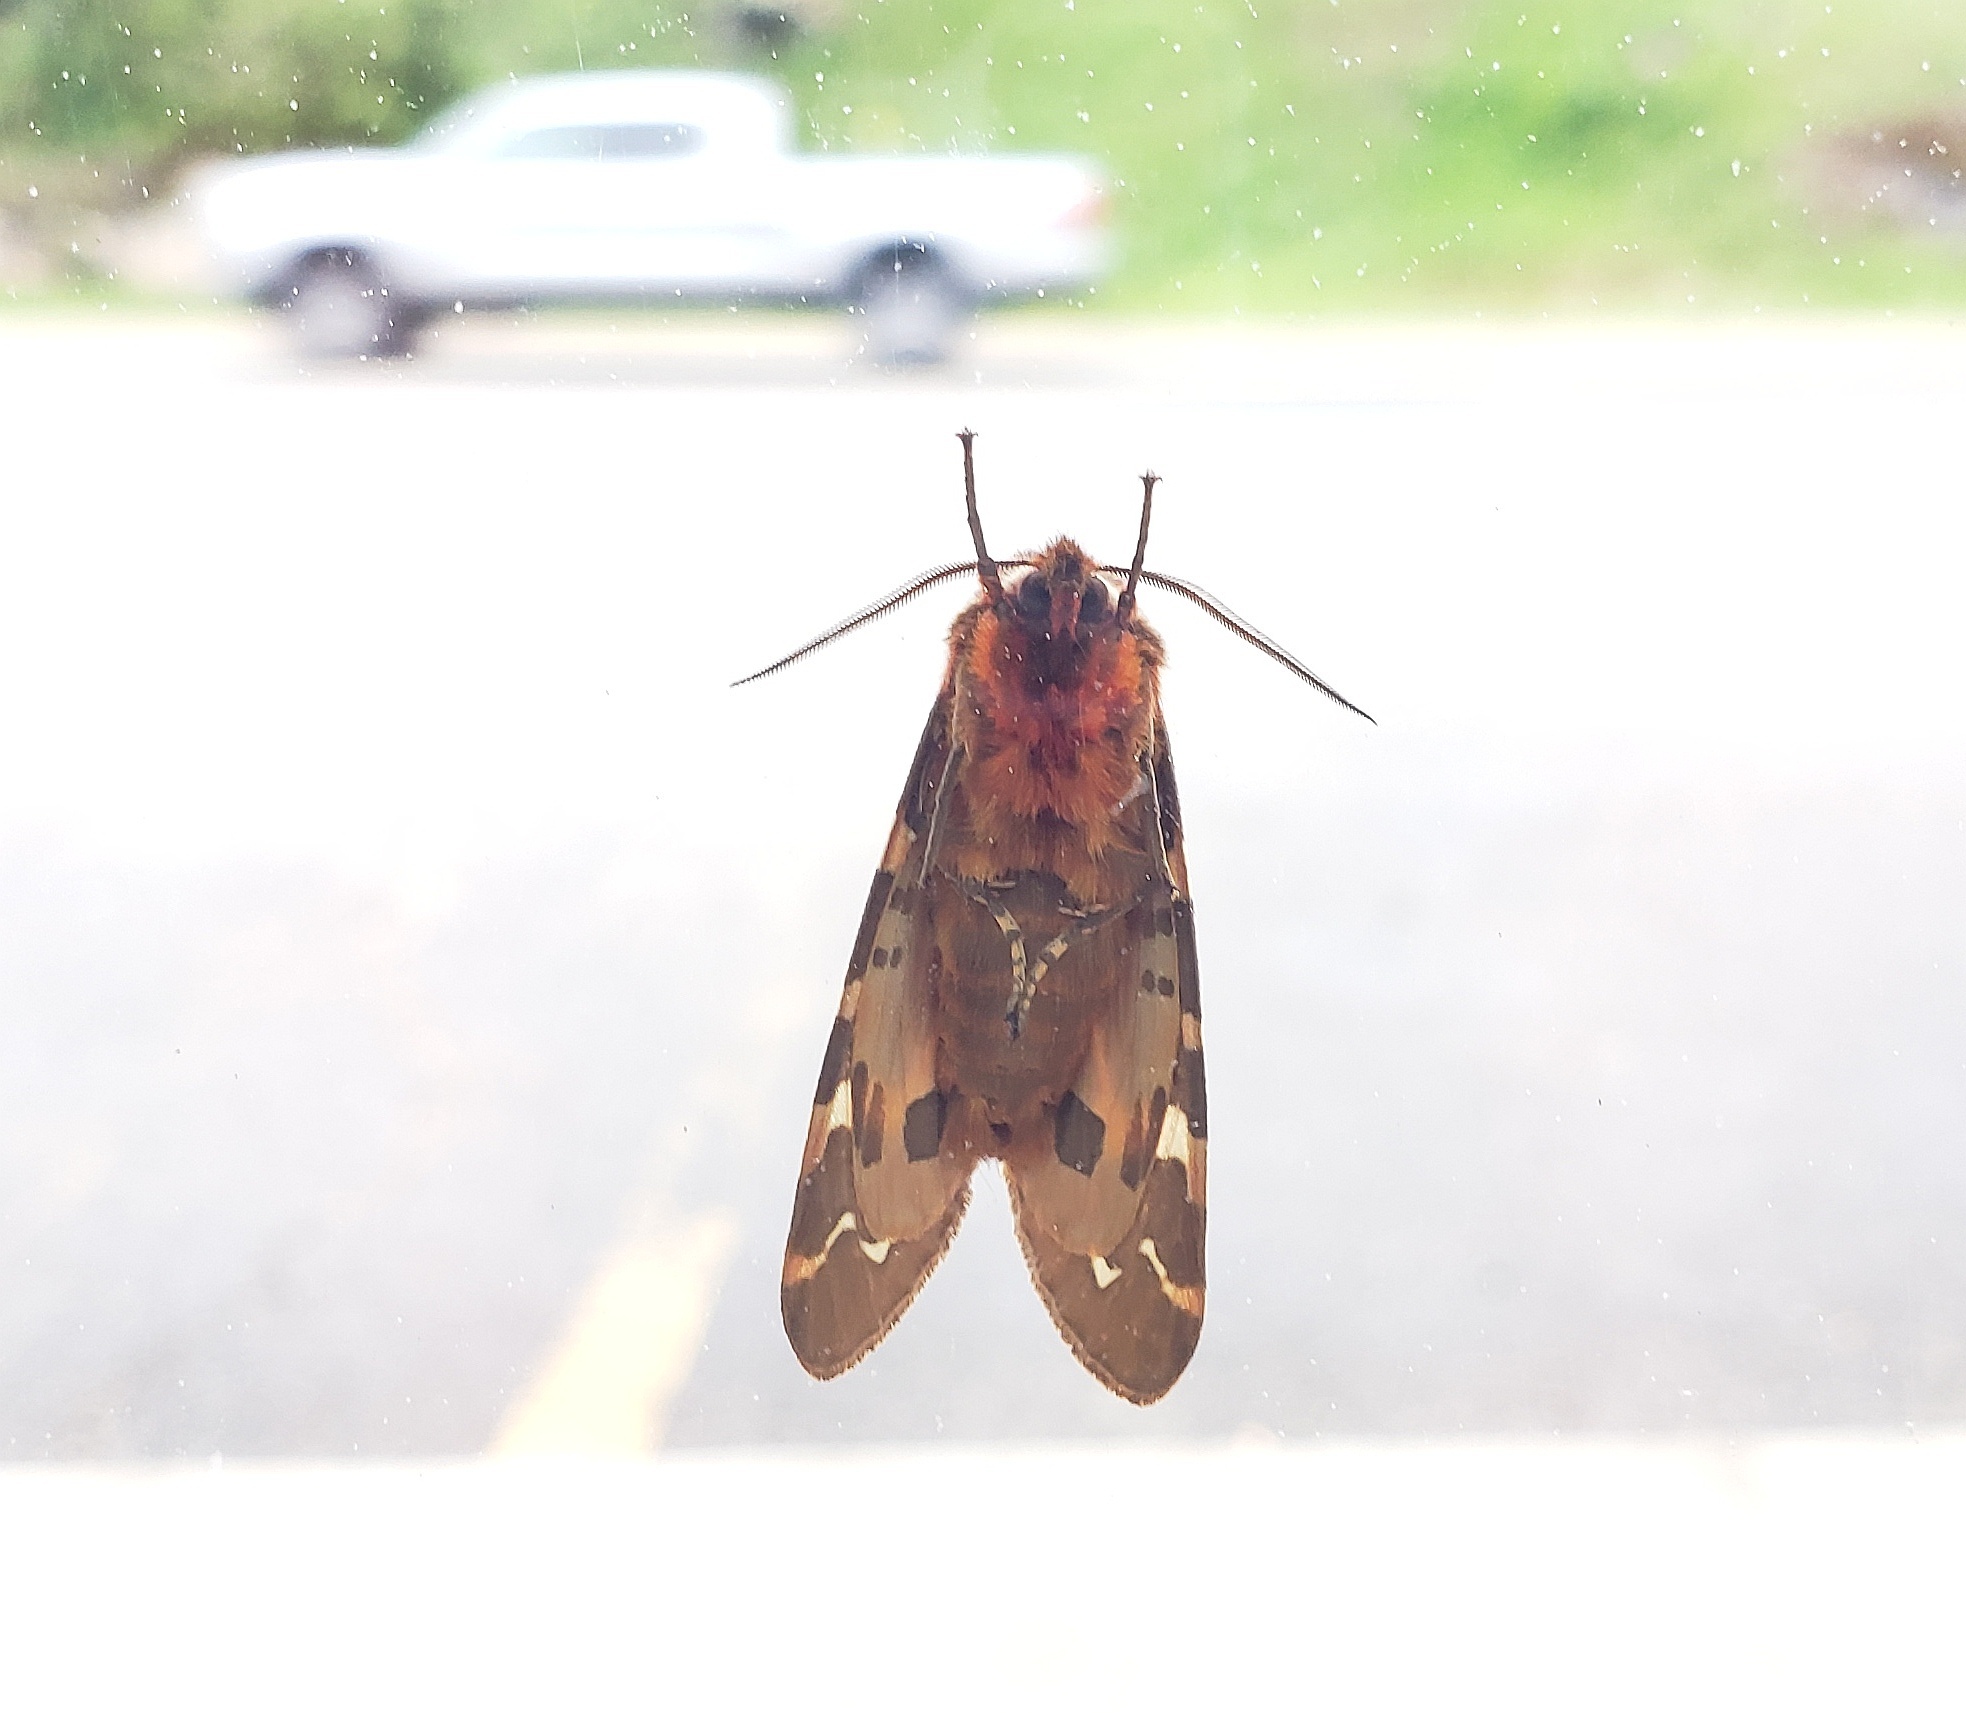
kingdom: Animalia
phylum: Arthropoda
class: Insecta
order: Lepidoptera
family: Erebidae
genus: Arctia
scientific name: Arctia caja
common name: Garden tiger
